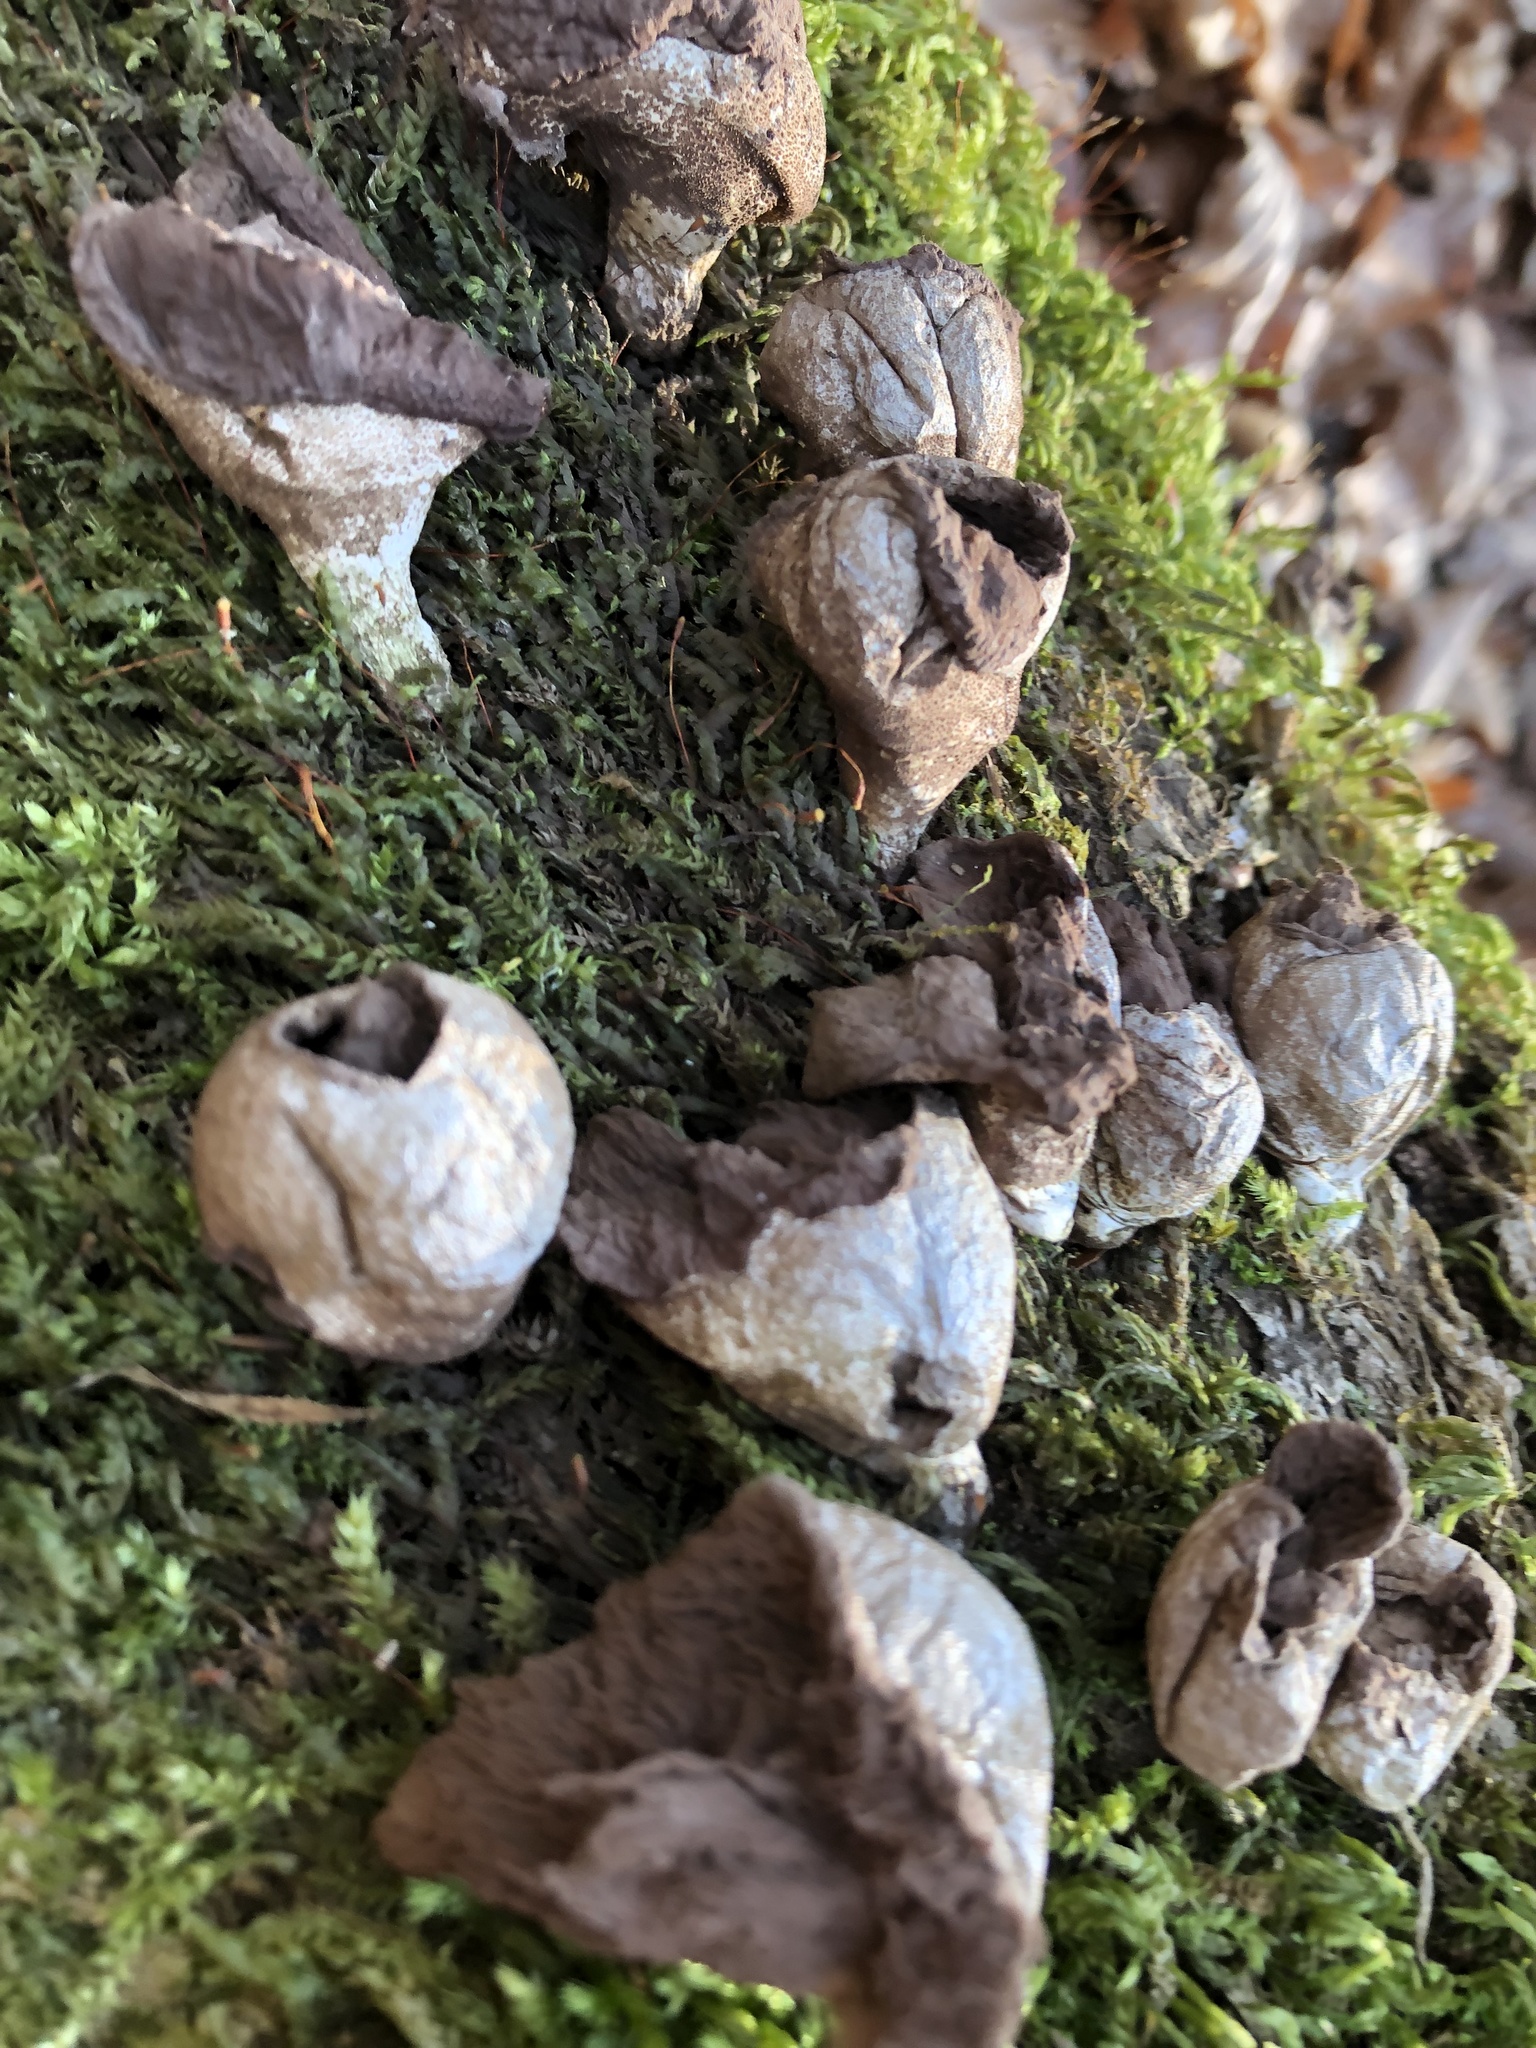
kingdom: Fungi
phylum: Basidiomycota
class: Agaricomycetes
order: Agaricales
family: Lycoperdaceae
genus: Apioperdon
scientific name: Apioperdon pyriforme
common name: Pear-shaped puffball
